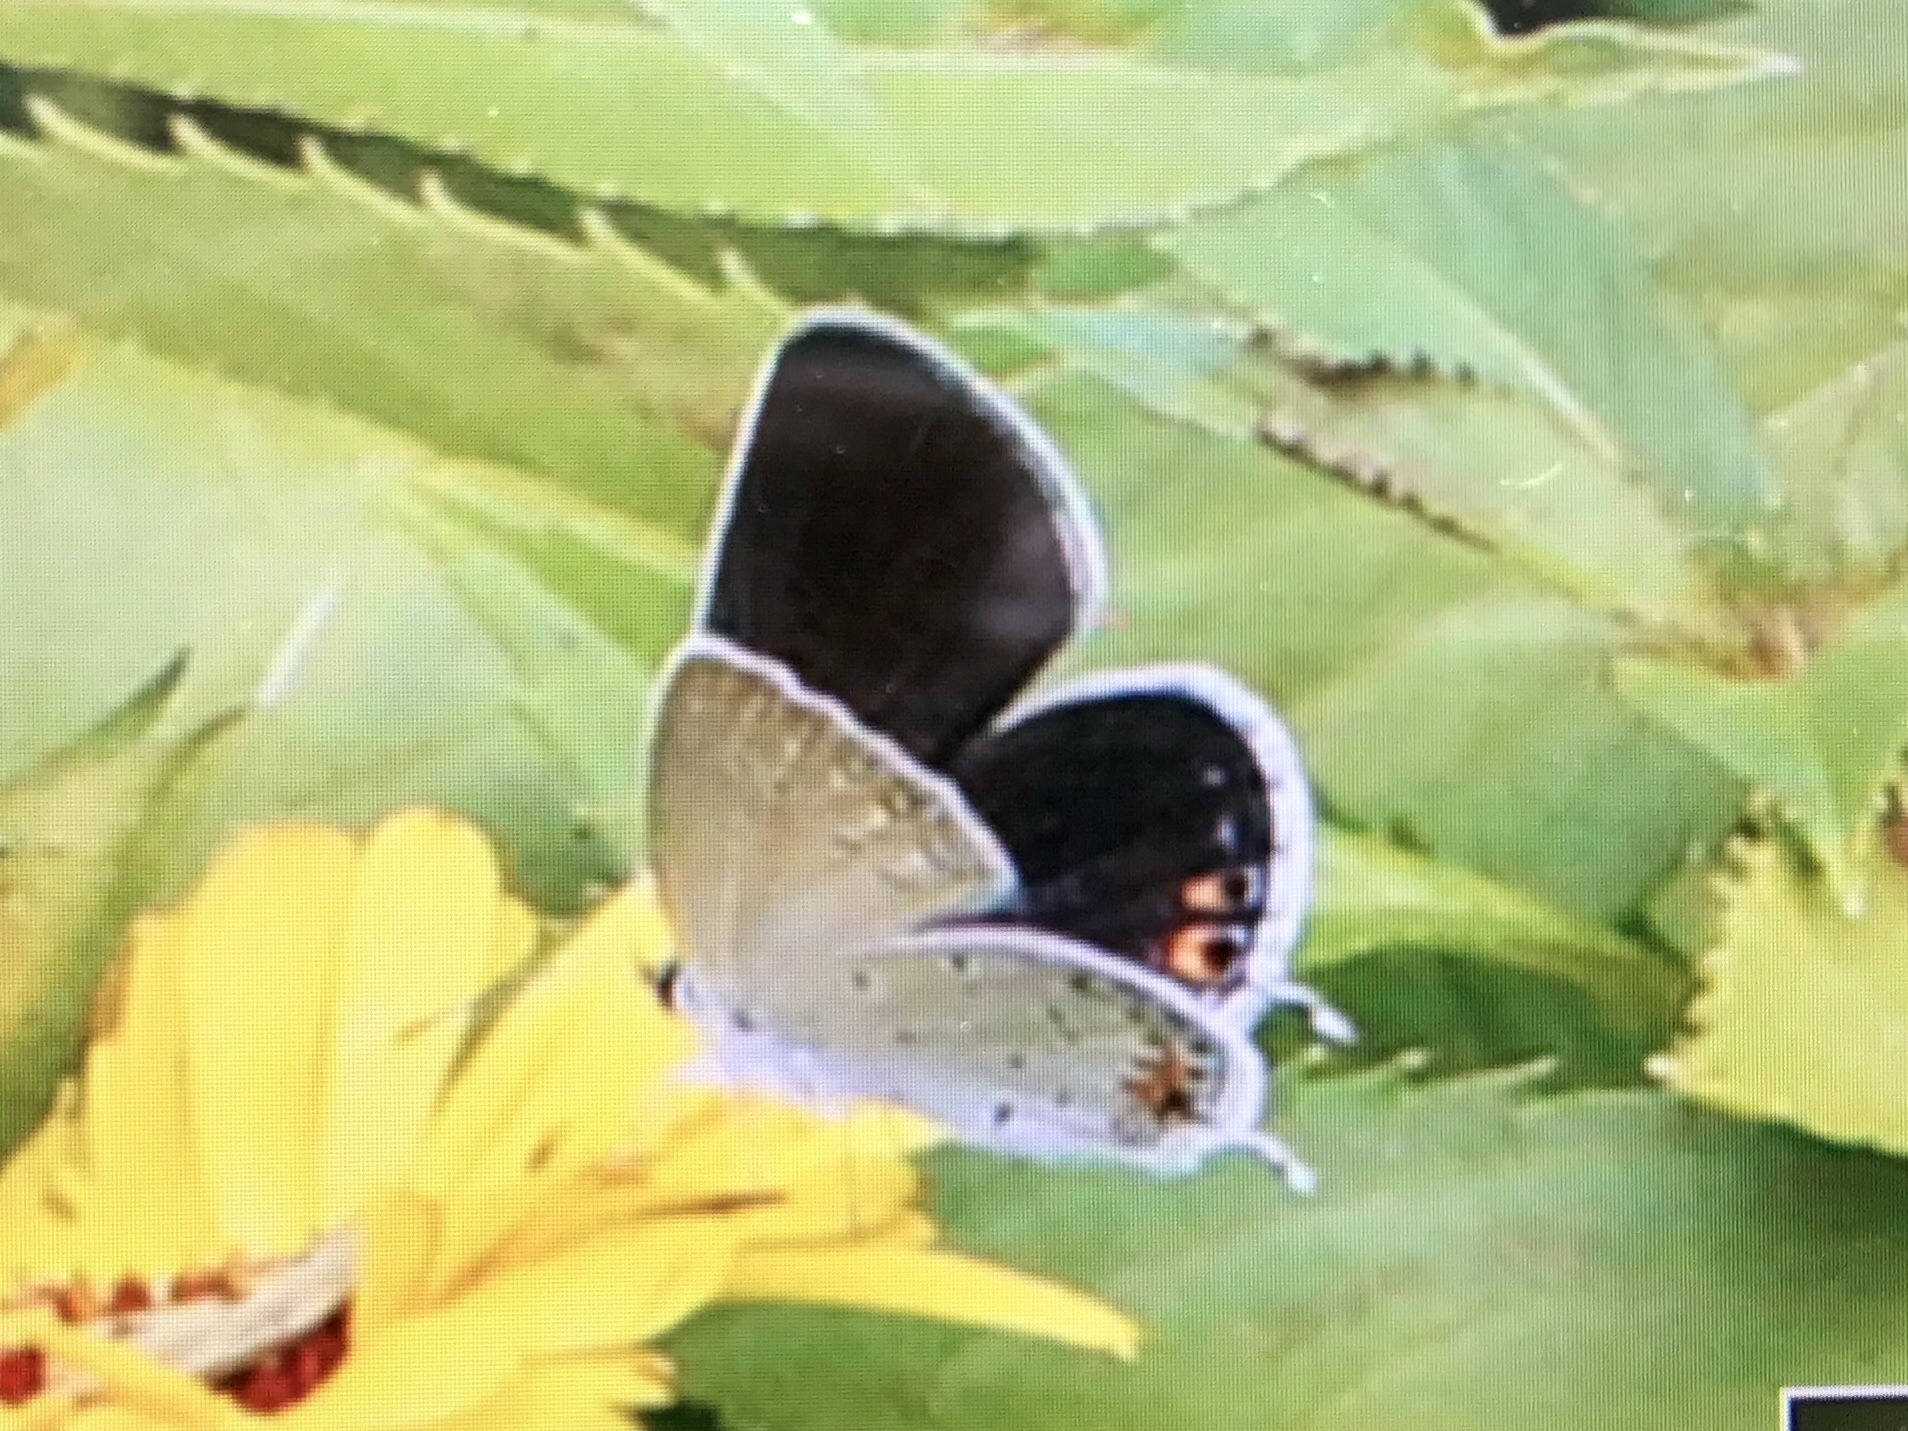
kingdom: Animalia
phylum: Arthropoda
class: Insecta
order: Lepidoptera
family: Lycaenidae
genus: Elkalyce
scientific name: Elkalyce comyntas
